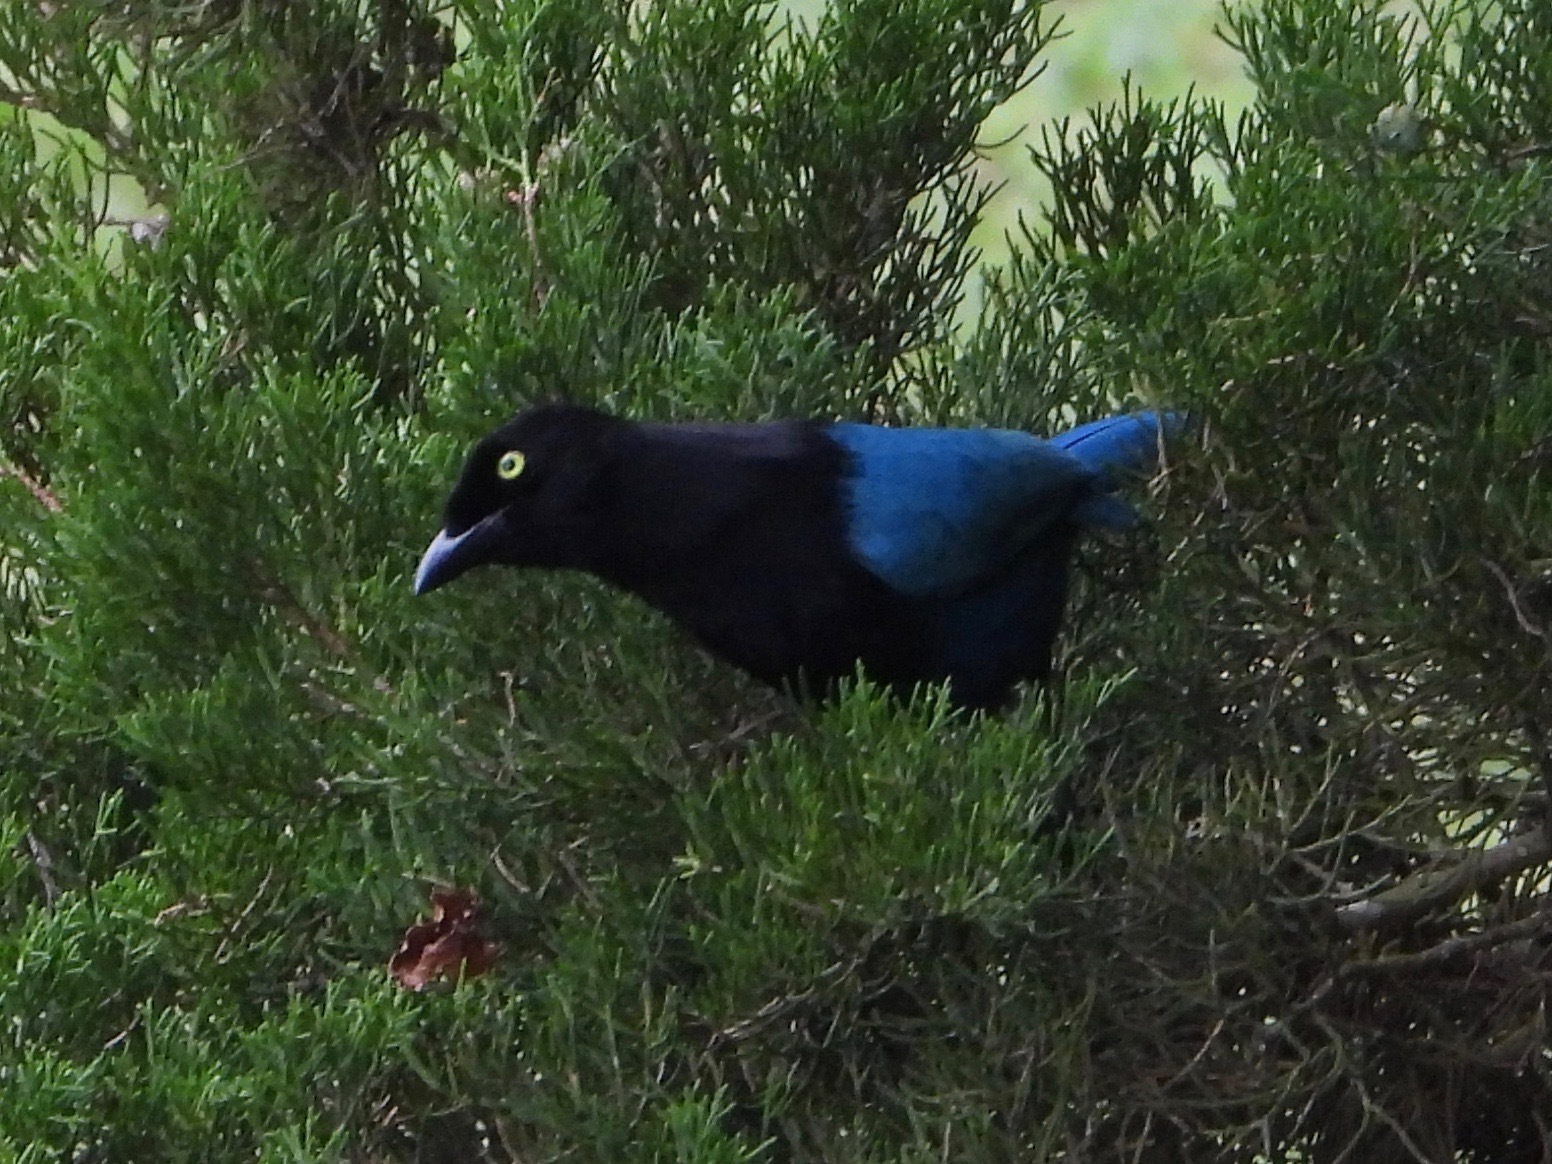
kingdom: Animalia
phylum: Chordata
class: Aves
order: Passeriformes
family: Corvidae
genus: Cyanocorax
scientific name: Cyanocorax melanocyaneus
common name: Bushy-crested jay
